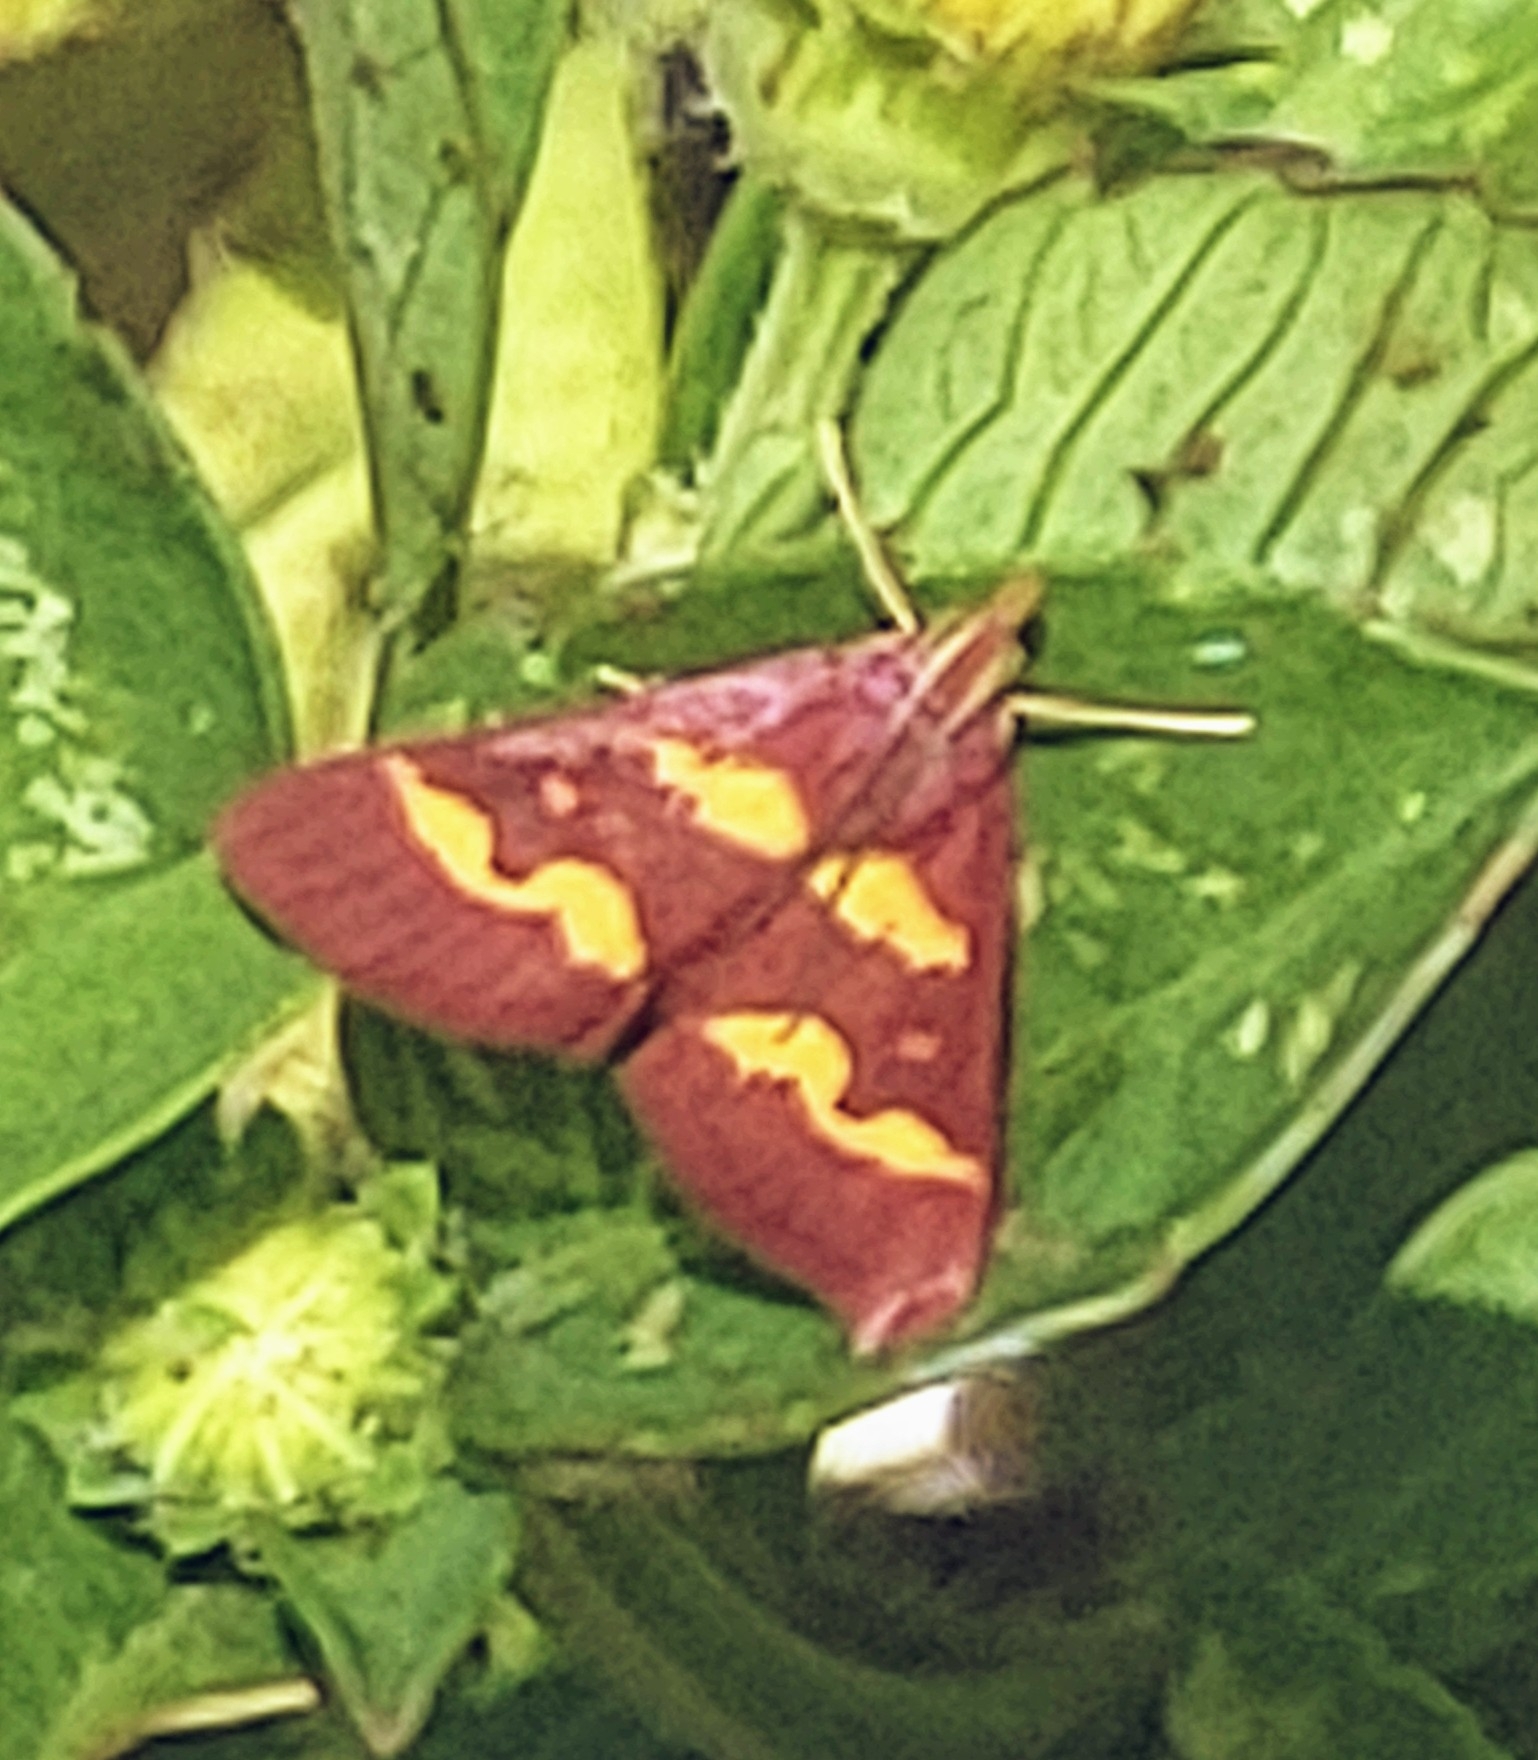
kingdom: Animalia
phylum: Arthropoda
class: Insecta
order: Lepidoptera
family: Crambidae
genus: Pyrausta
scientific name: Pyrausta tyralis
